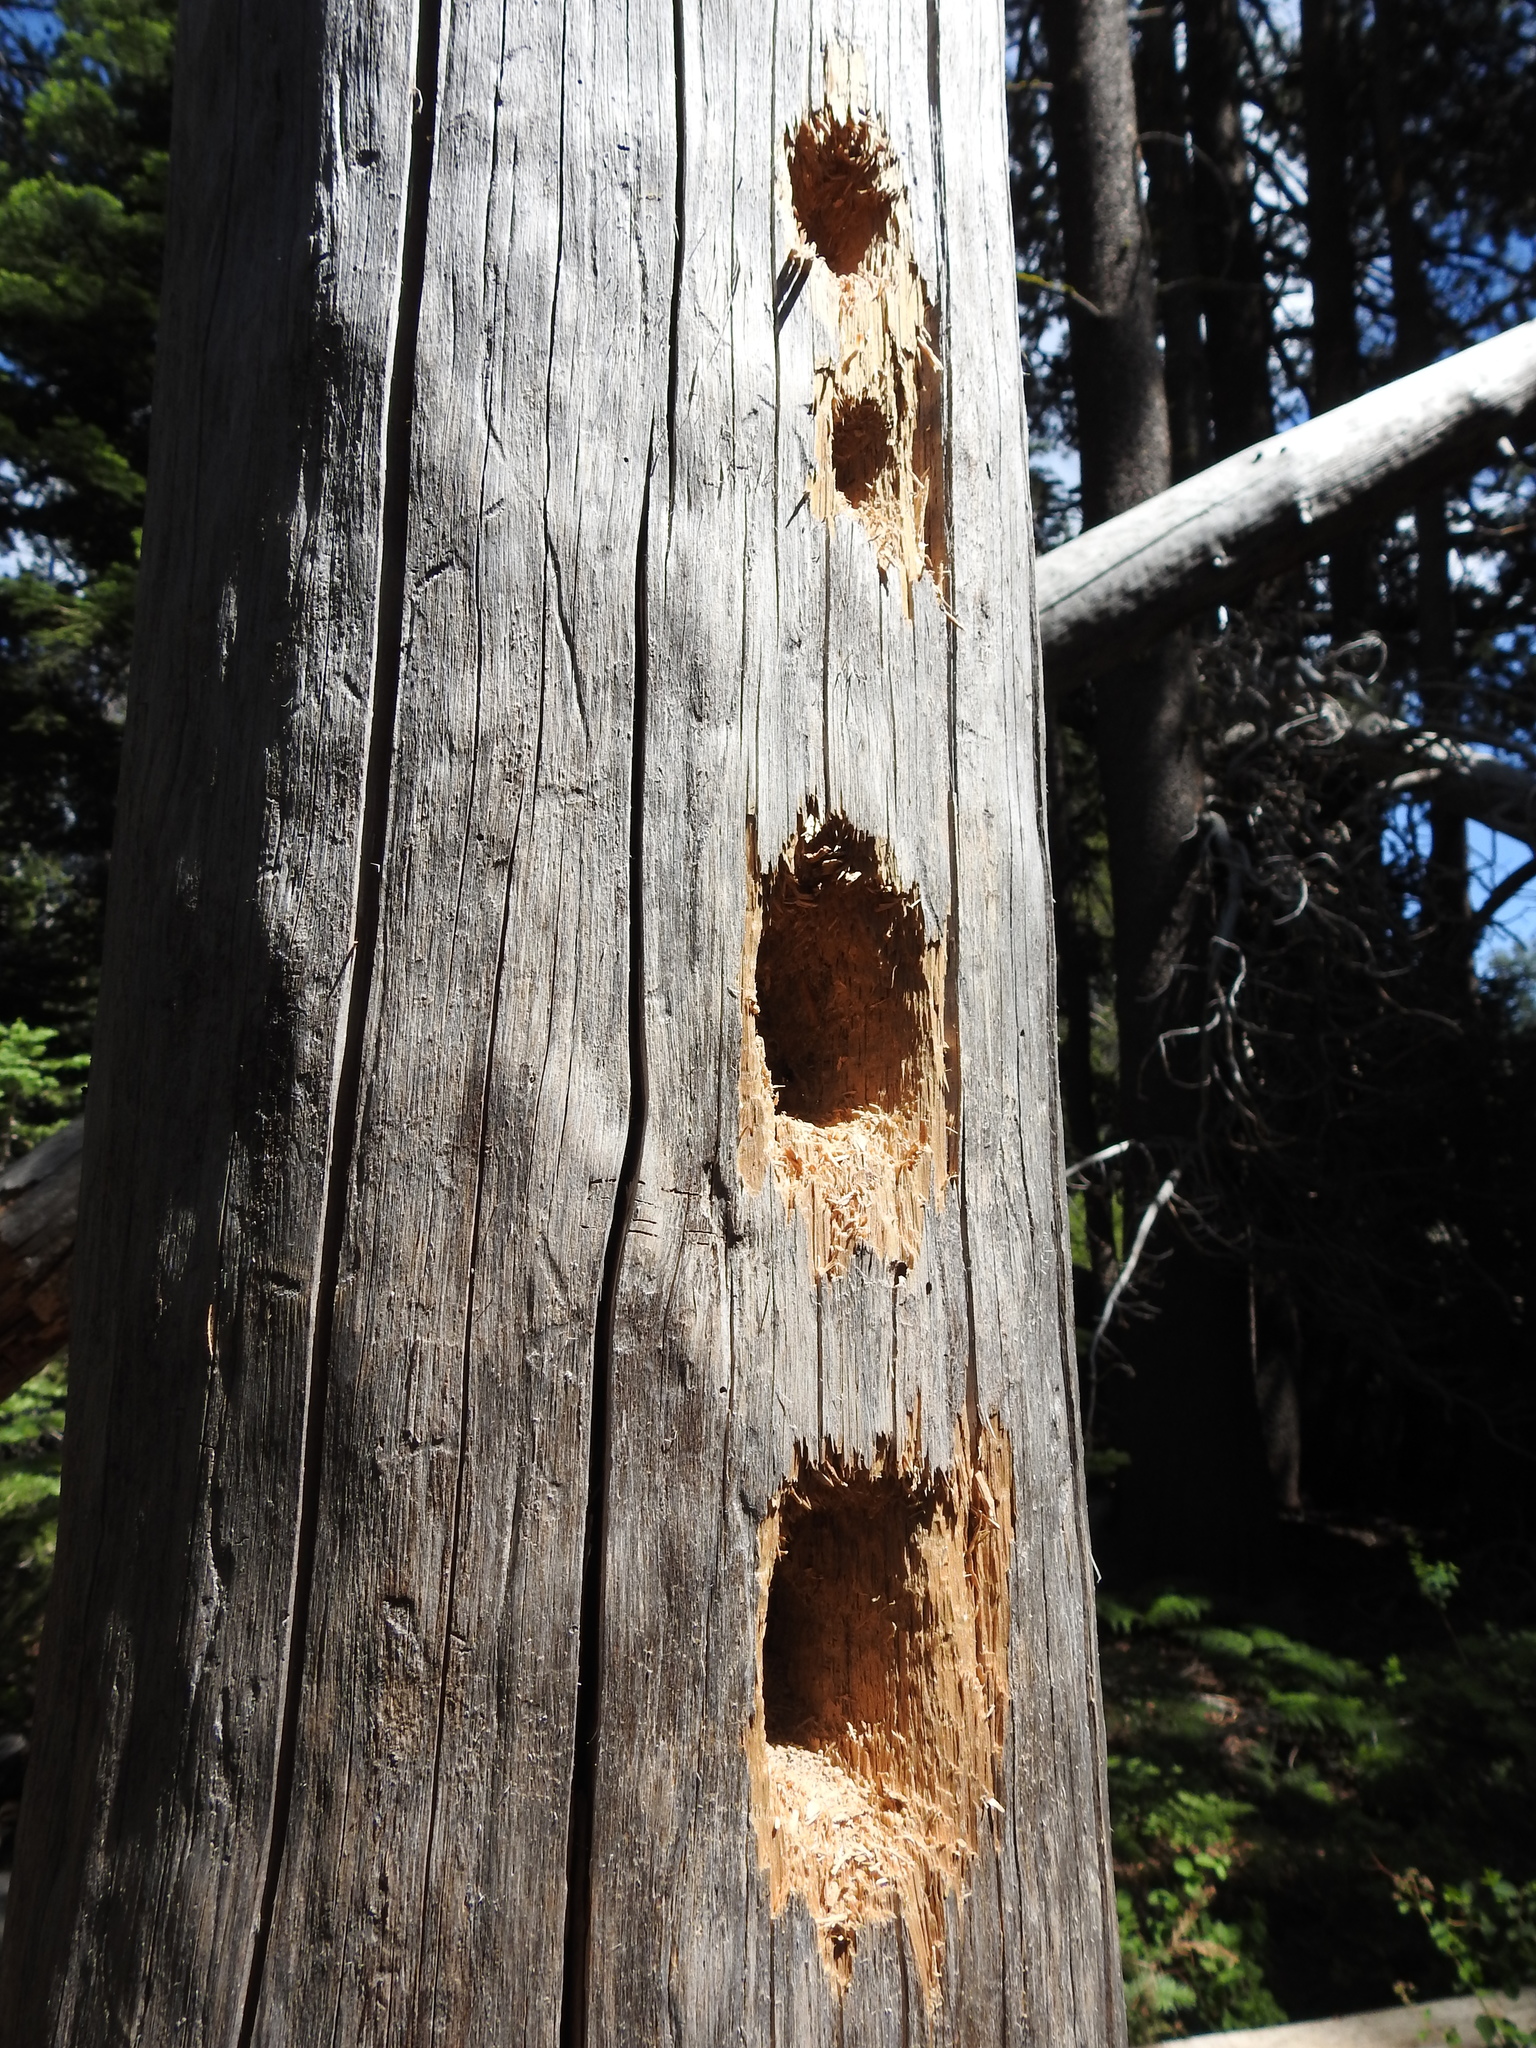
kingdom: Animalia
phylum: Chordata
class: Aves
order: Piciformes
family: Picidae
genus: Dryocopus
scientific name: Dryocopus pileatus
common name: Pileated woodpecker
